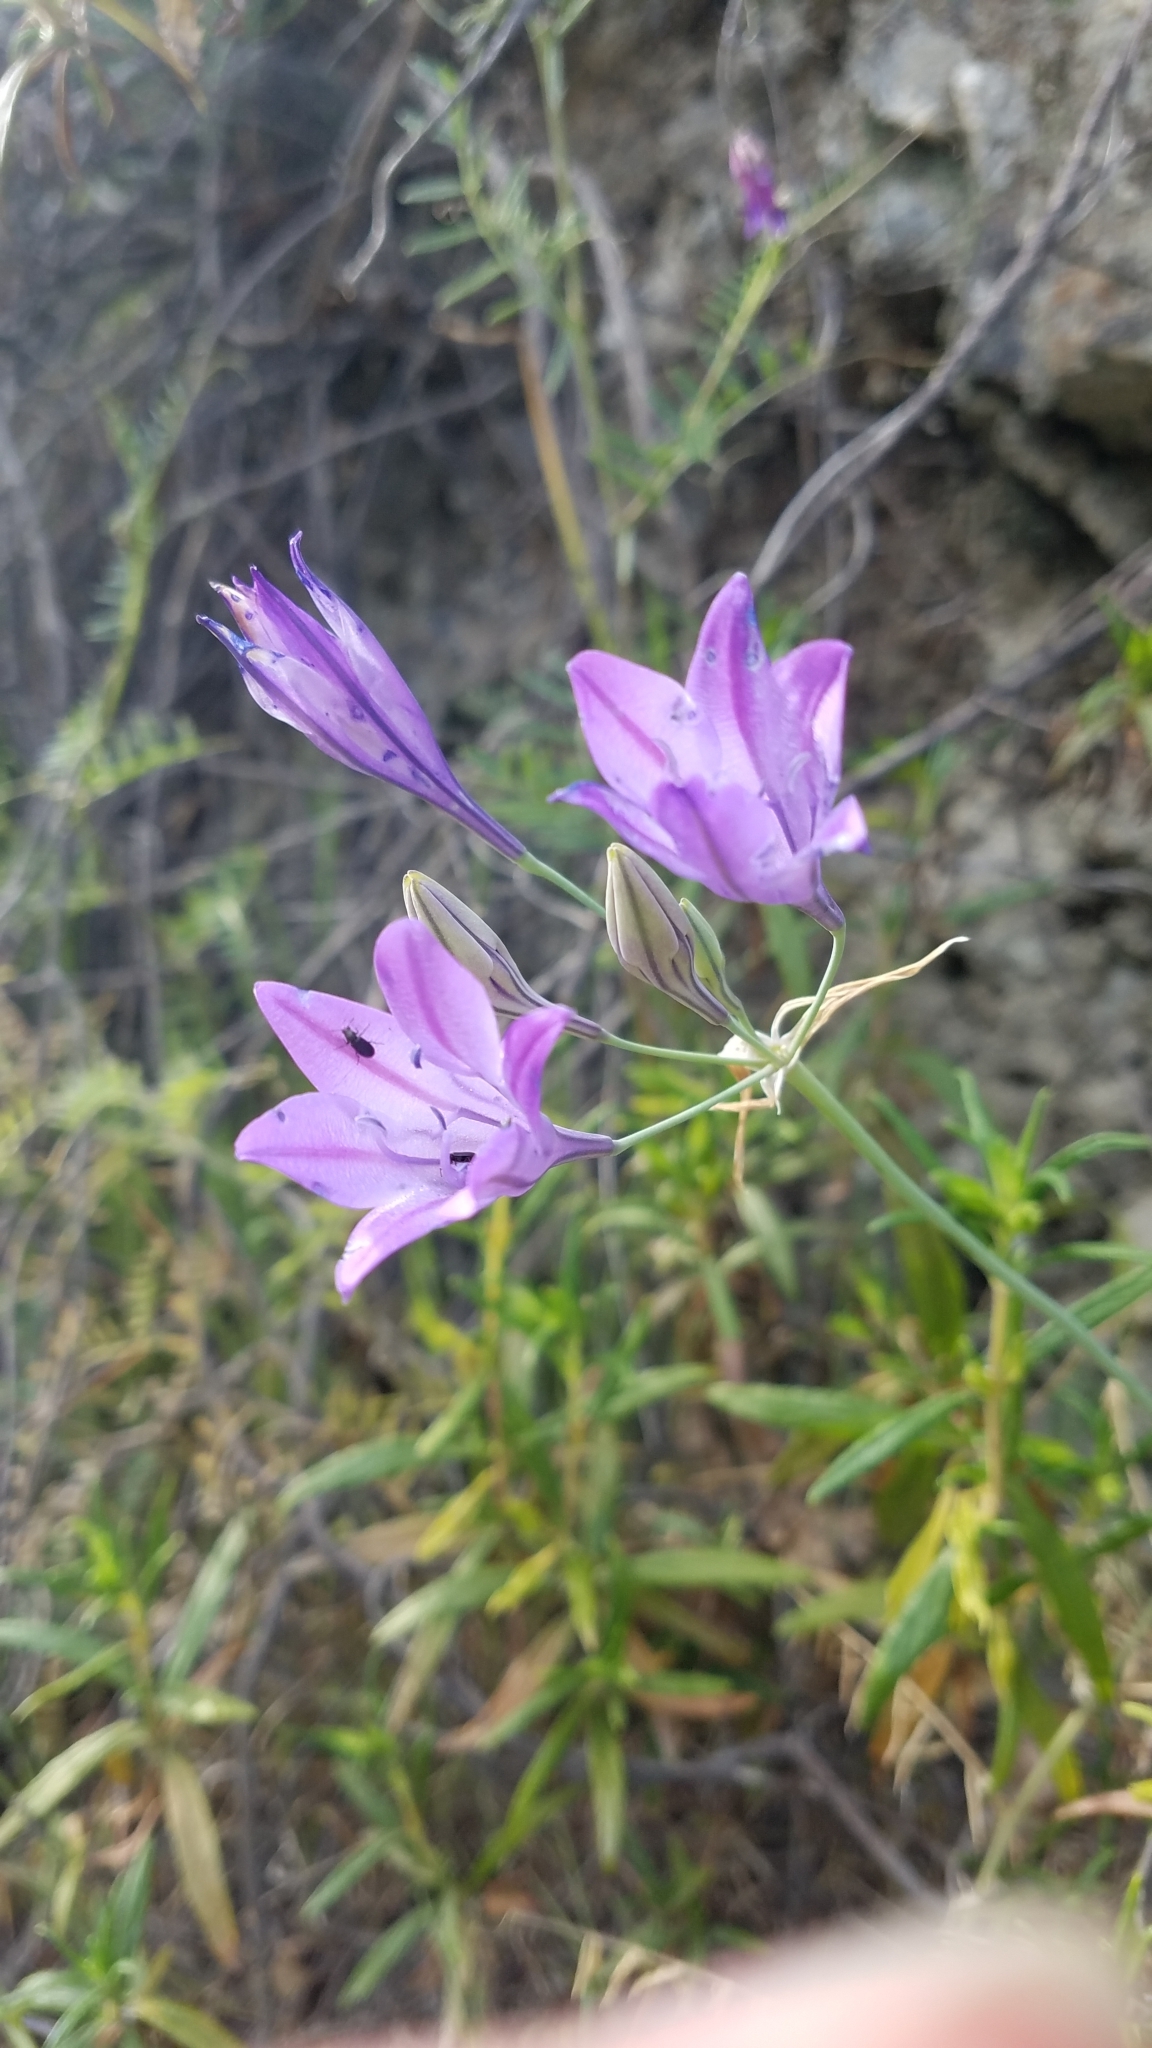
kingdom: Plantae
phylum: Tracheophyta
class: Liliopsida
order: Asparagales
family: Asparagaceae
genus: Triteleia
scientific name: Triteleia laxa
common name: Triplet-lily
